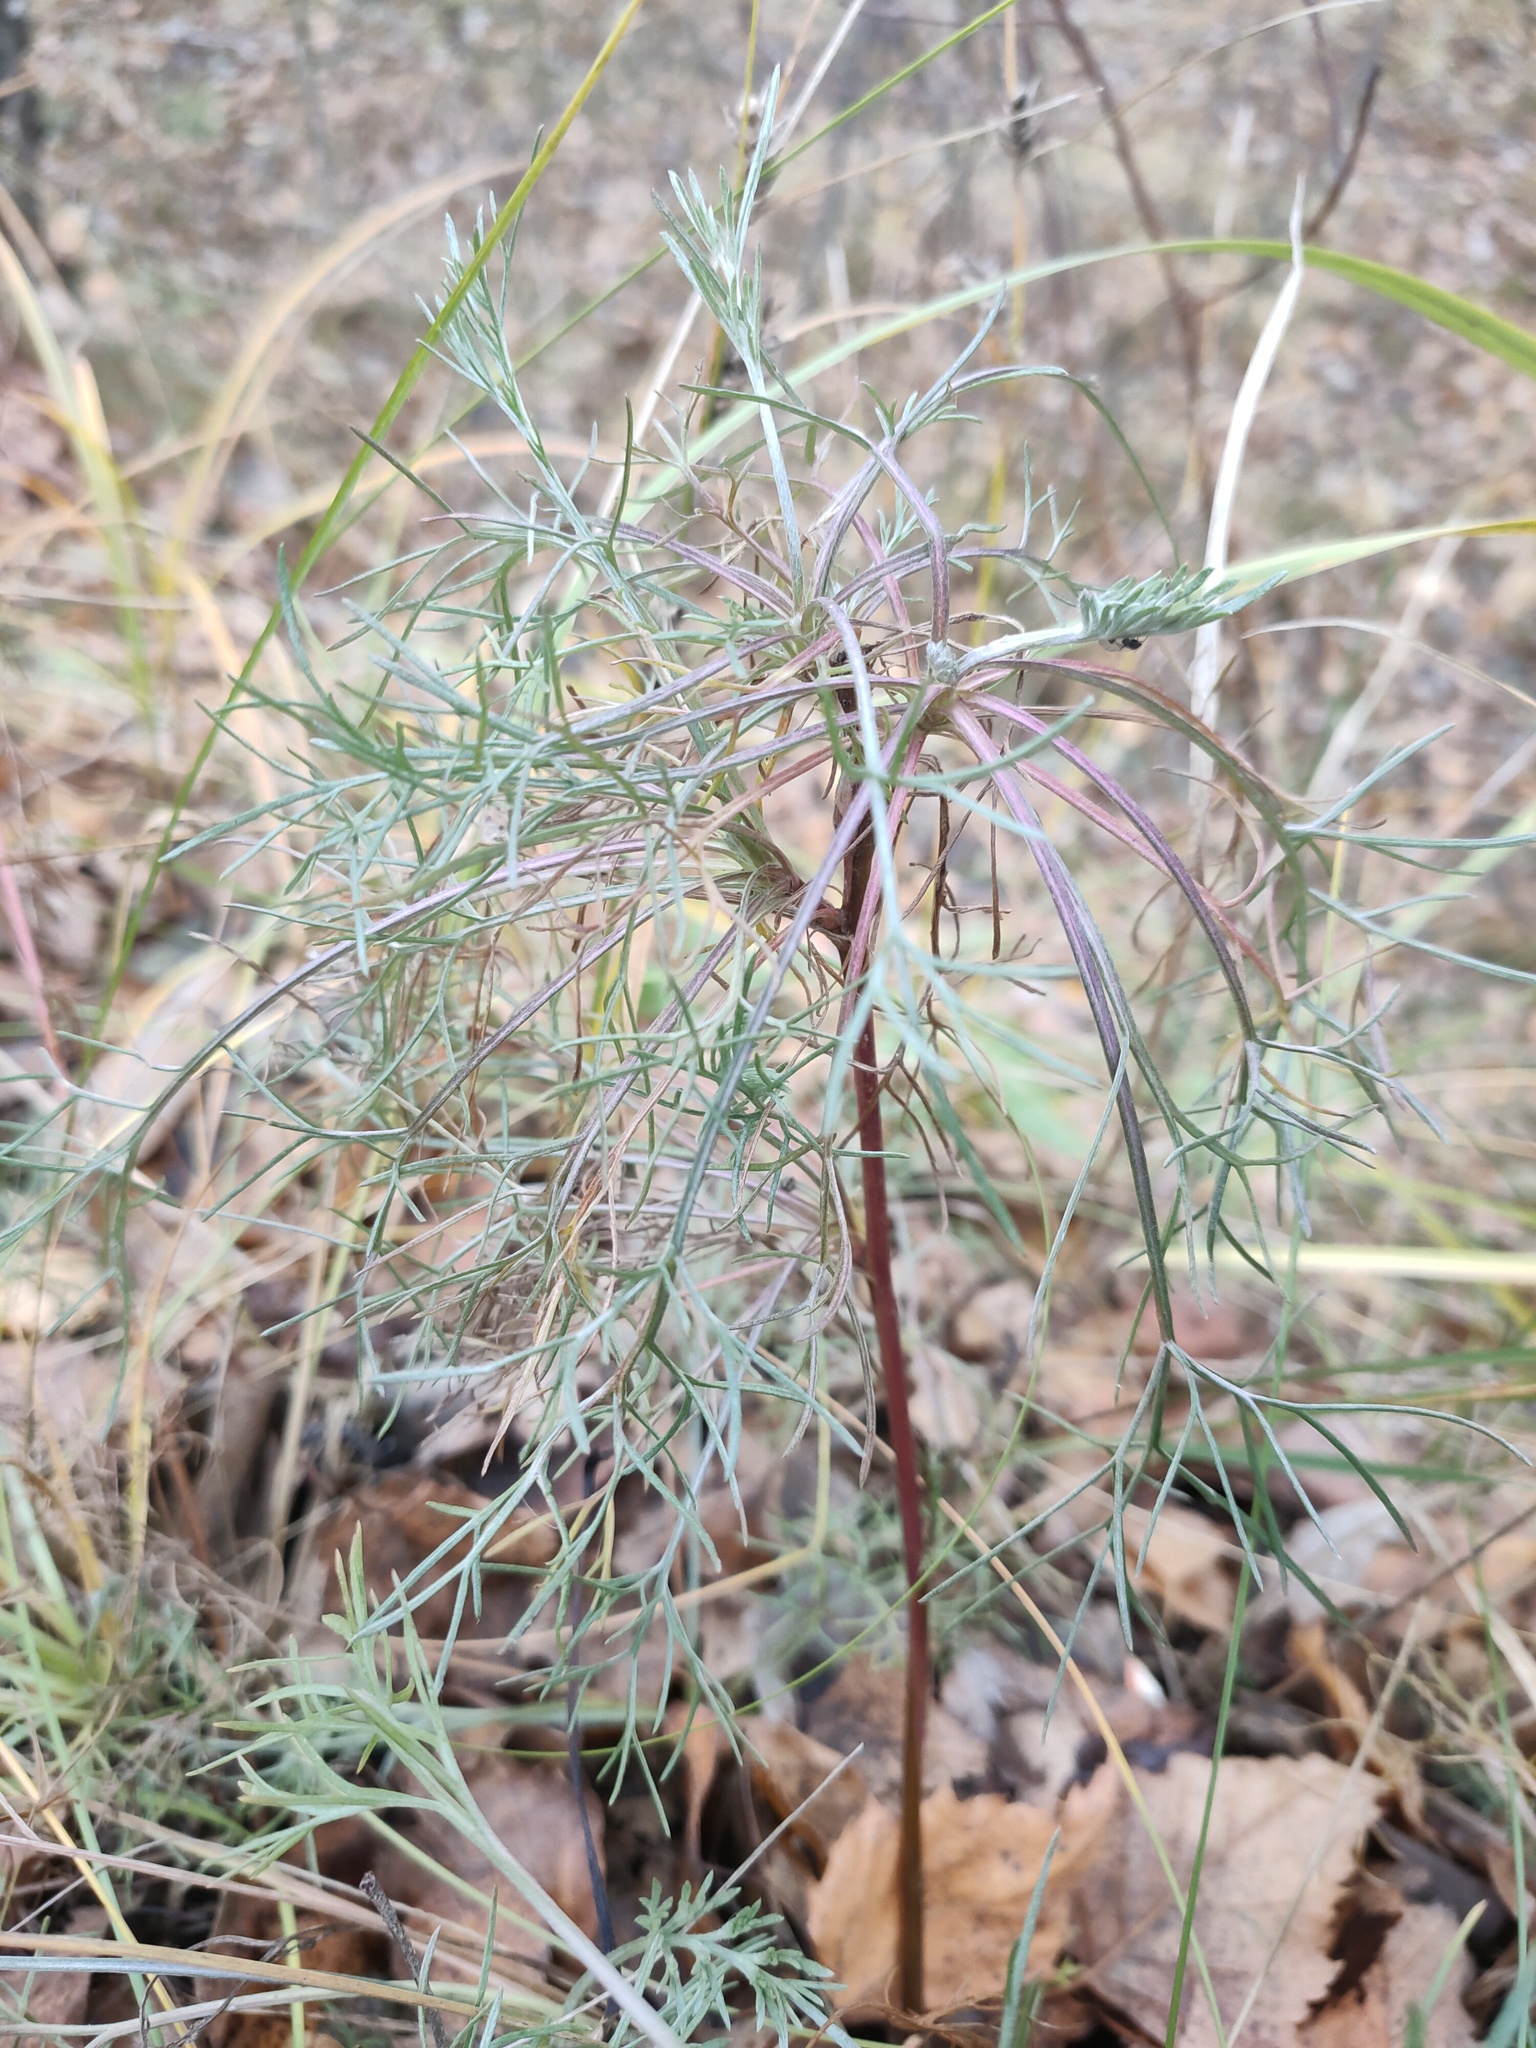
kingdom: Plantae
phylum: Tracheophyta
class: Magnoliopsida
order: Asterales
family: Asteraceae
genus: Artemisia
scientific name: Artemisia campestris
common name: Field wormwood
